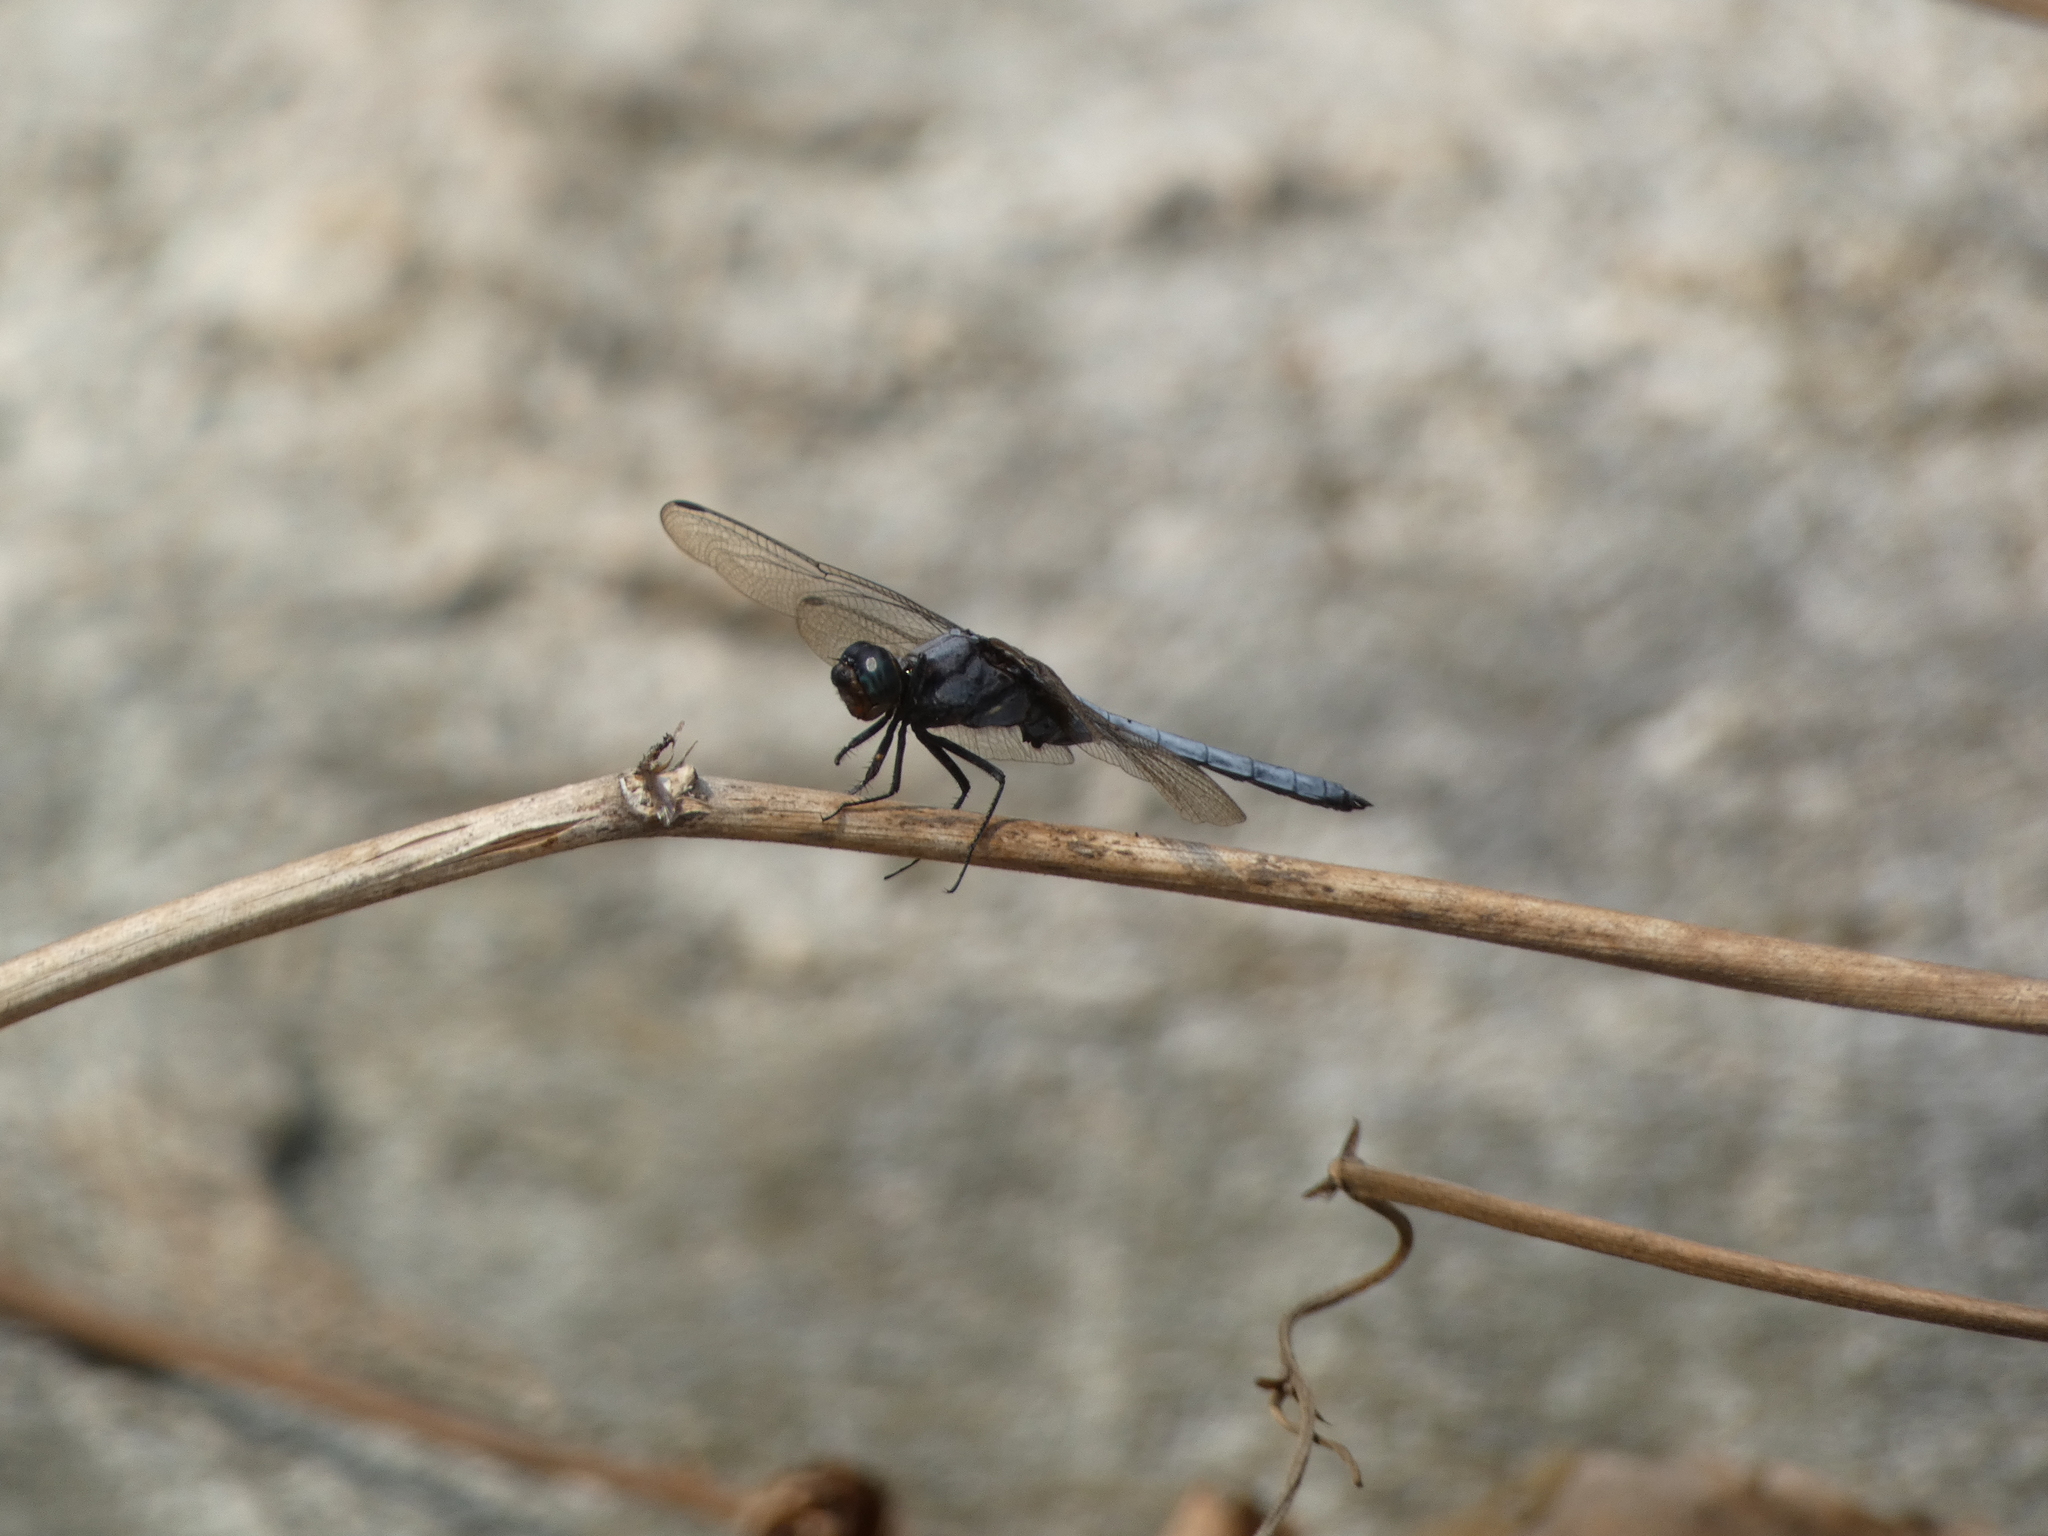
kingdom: Animalia
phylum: Arthropoda
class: Insecta
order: Odonata
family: Libellulidae
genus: Orthetrum
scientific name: Orthetrum glaucum
